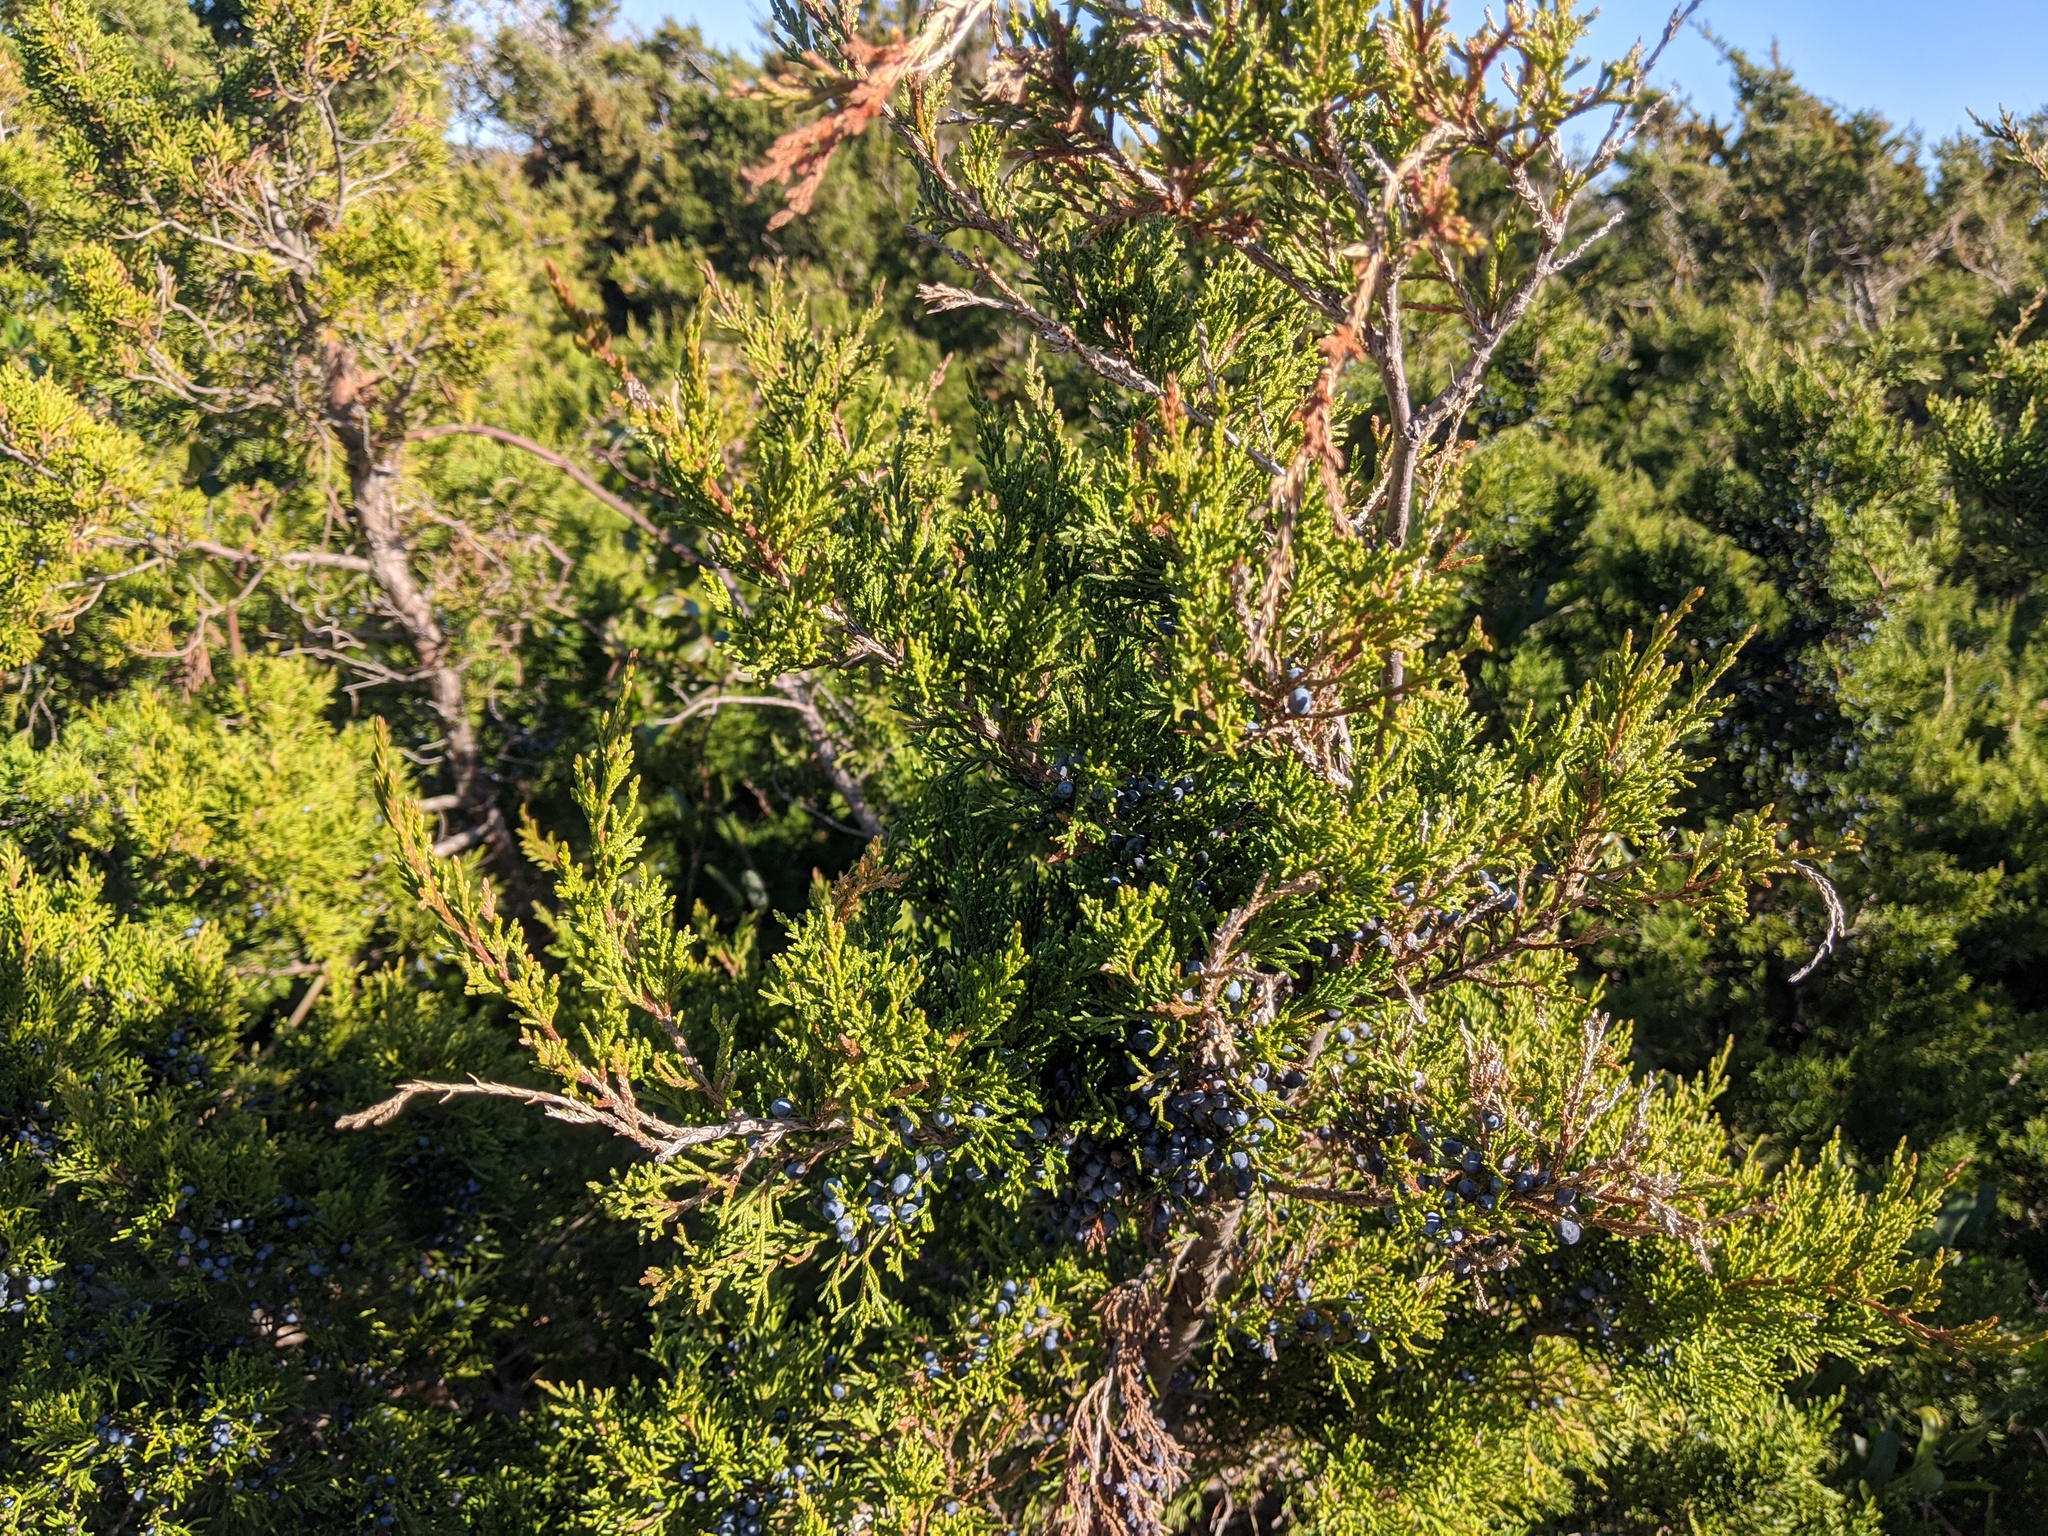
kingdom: Plantae
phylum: Tracheophyta
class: Pinopsida
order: Pinales
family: Cupressaceae
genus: Juniperus
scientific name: Juniperus virginiana
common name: Red juniper
